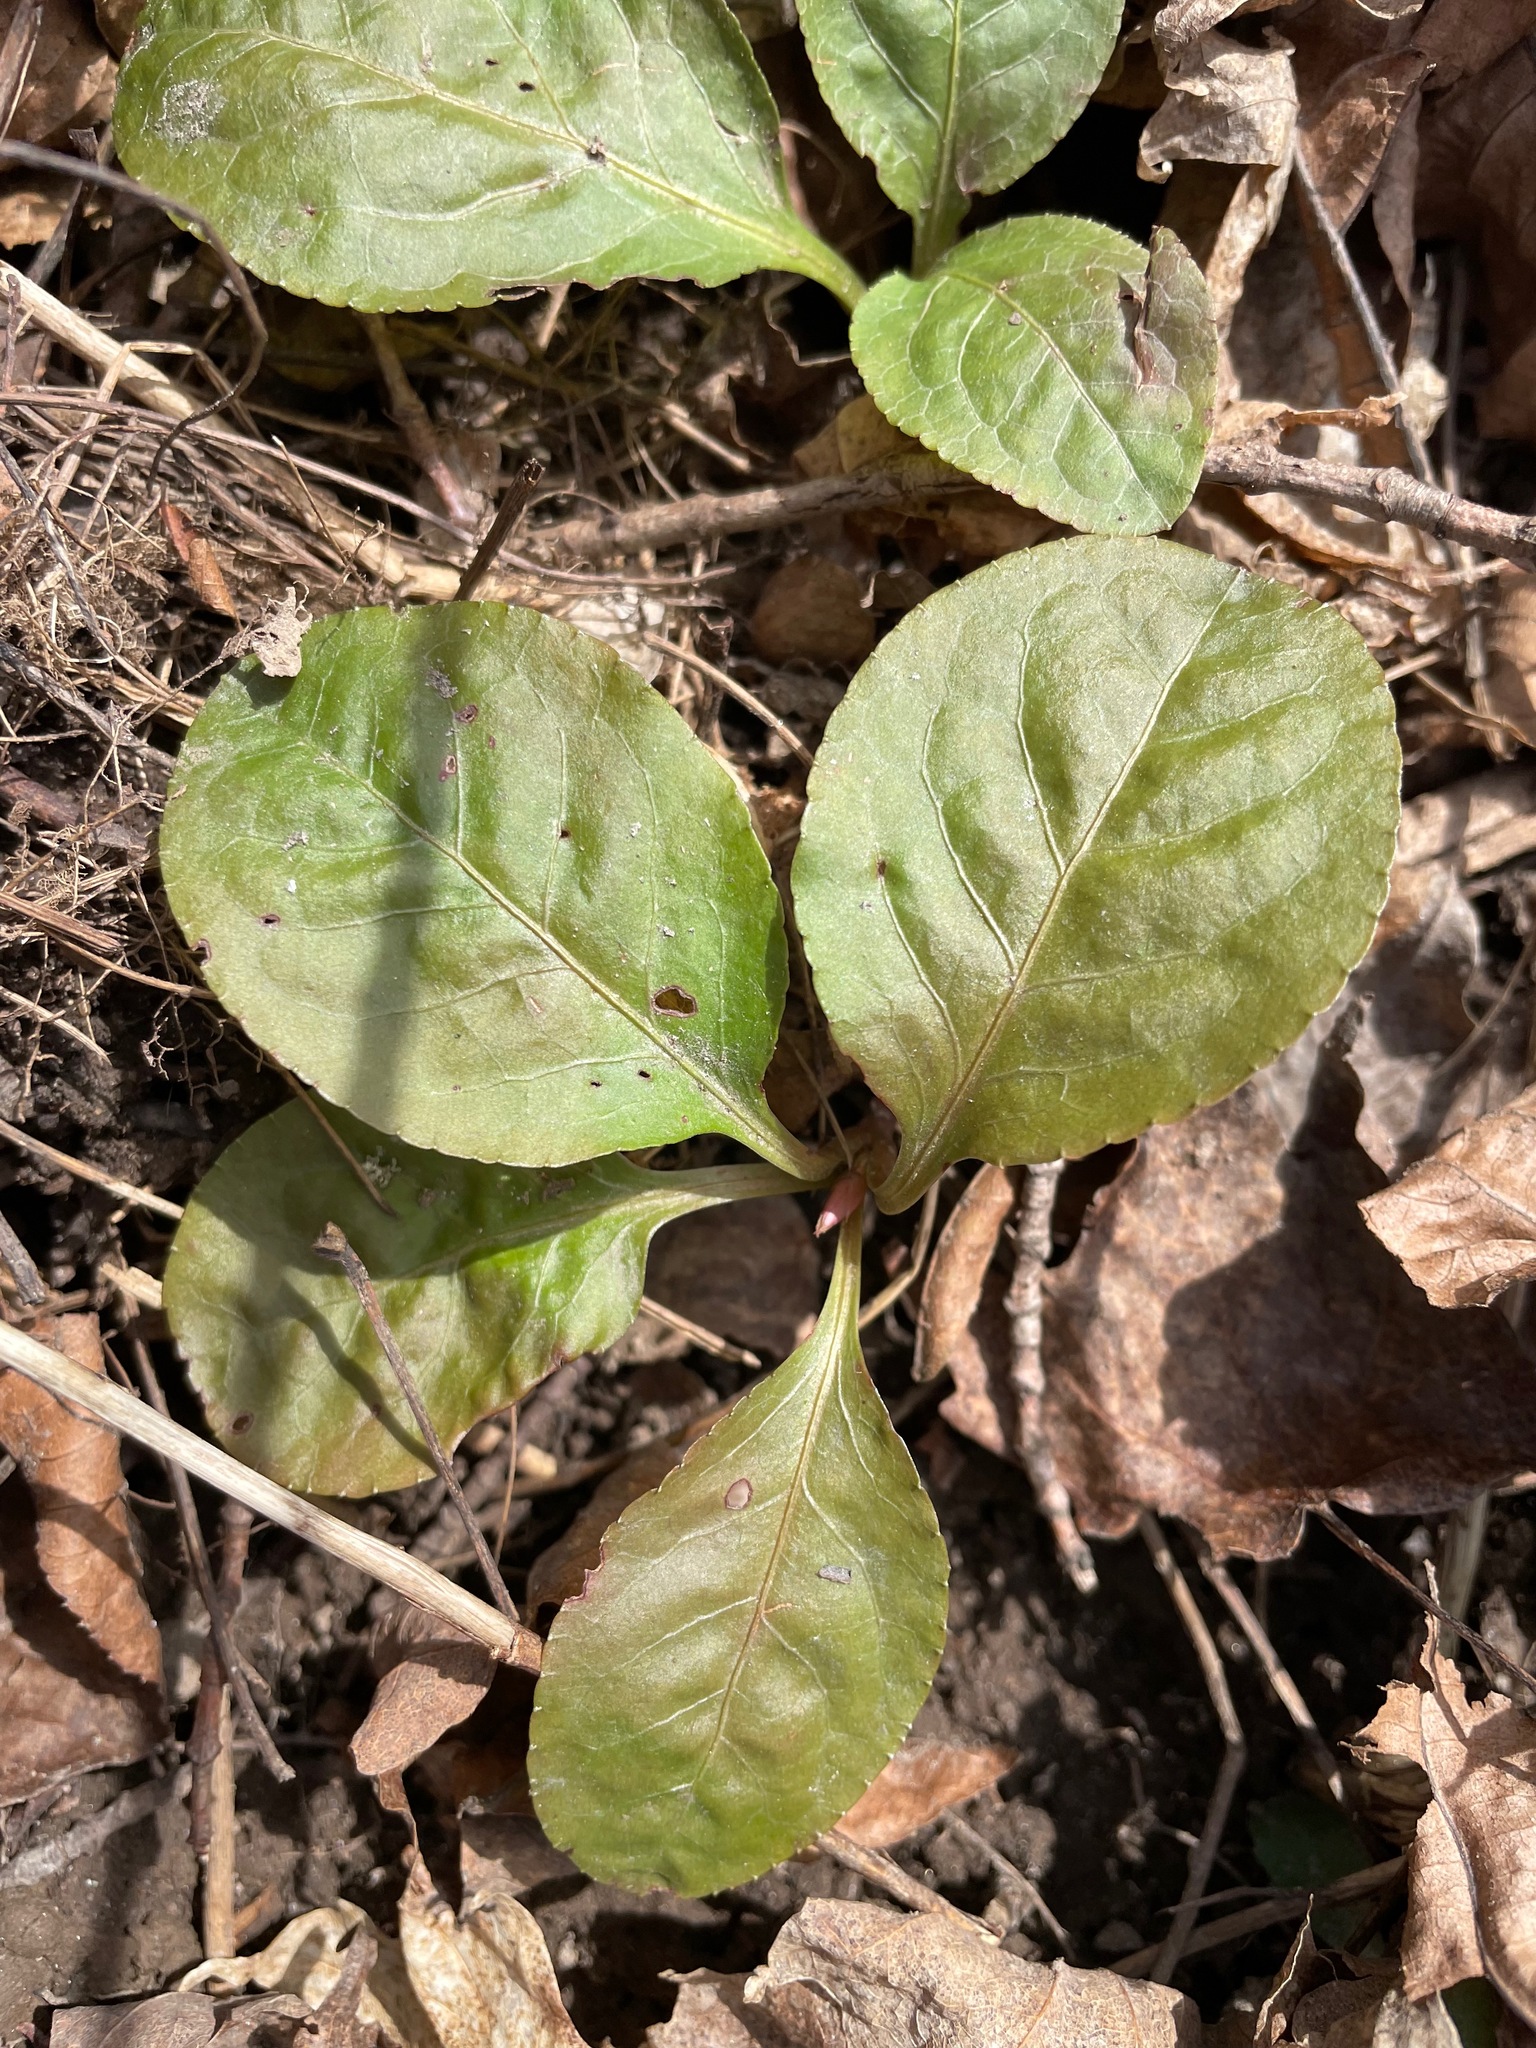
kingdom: Plantae
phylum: Tracheophyta
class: Magnoliopsida
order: Ericales
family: Ericaceae
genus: Pyrola
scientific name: Pyrola elliptica
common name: Shinleaf
